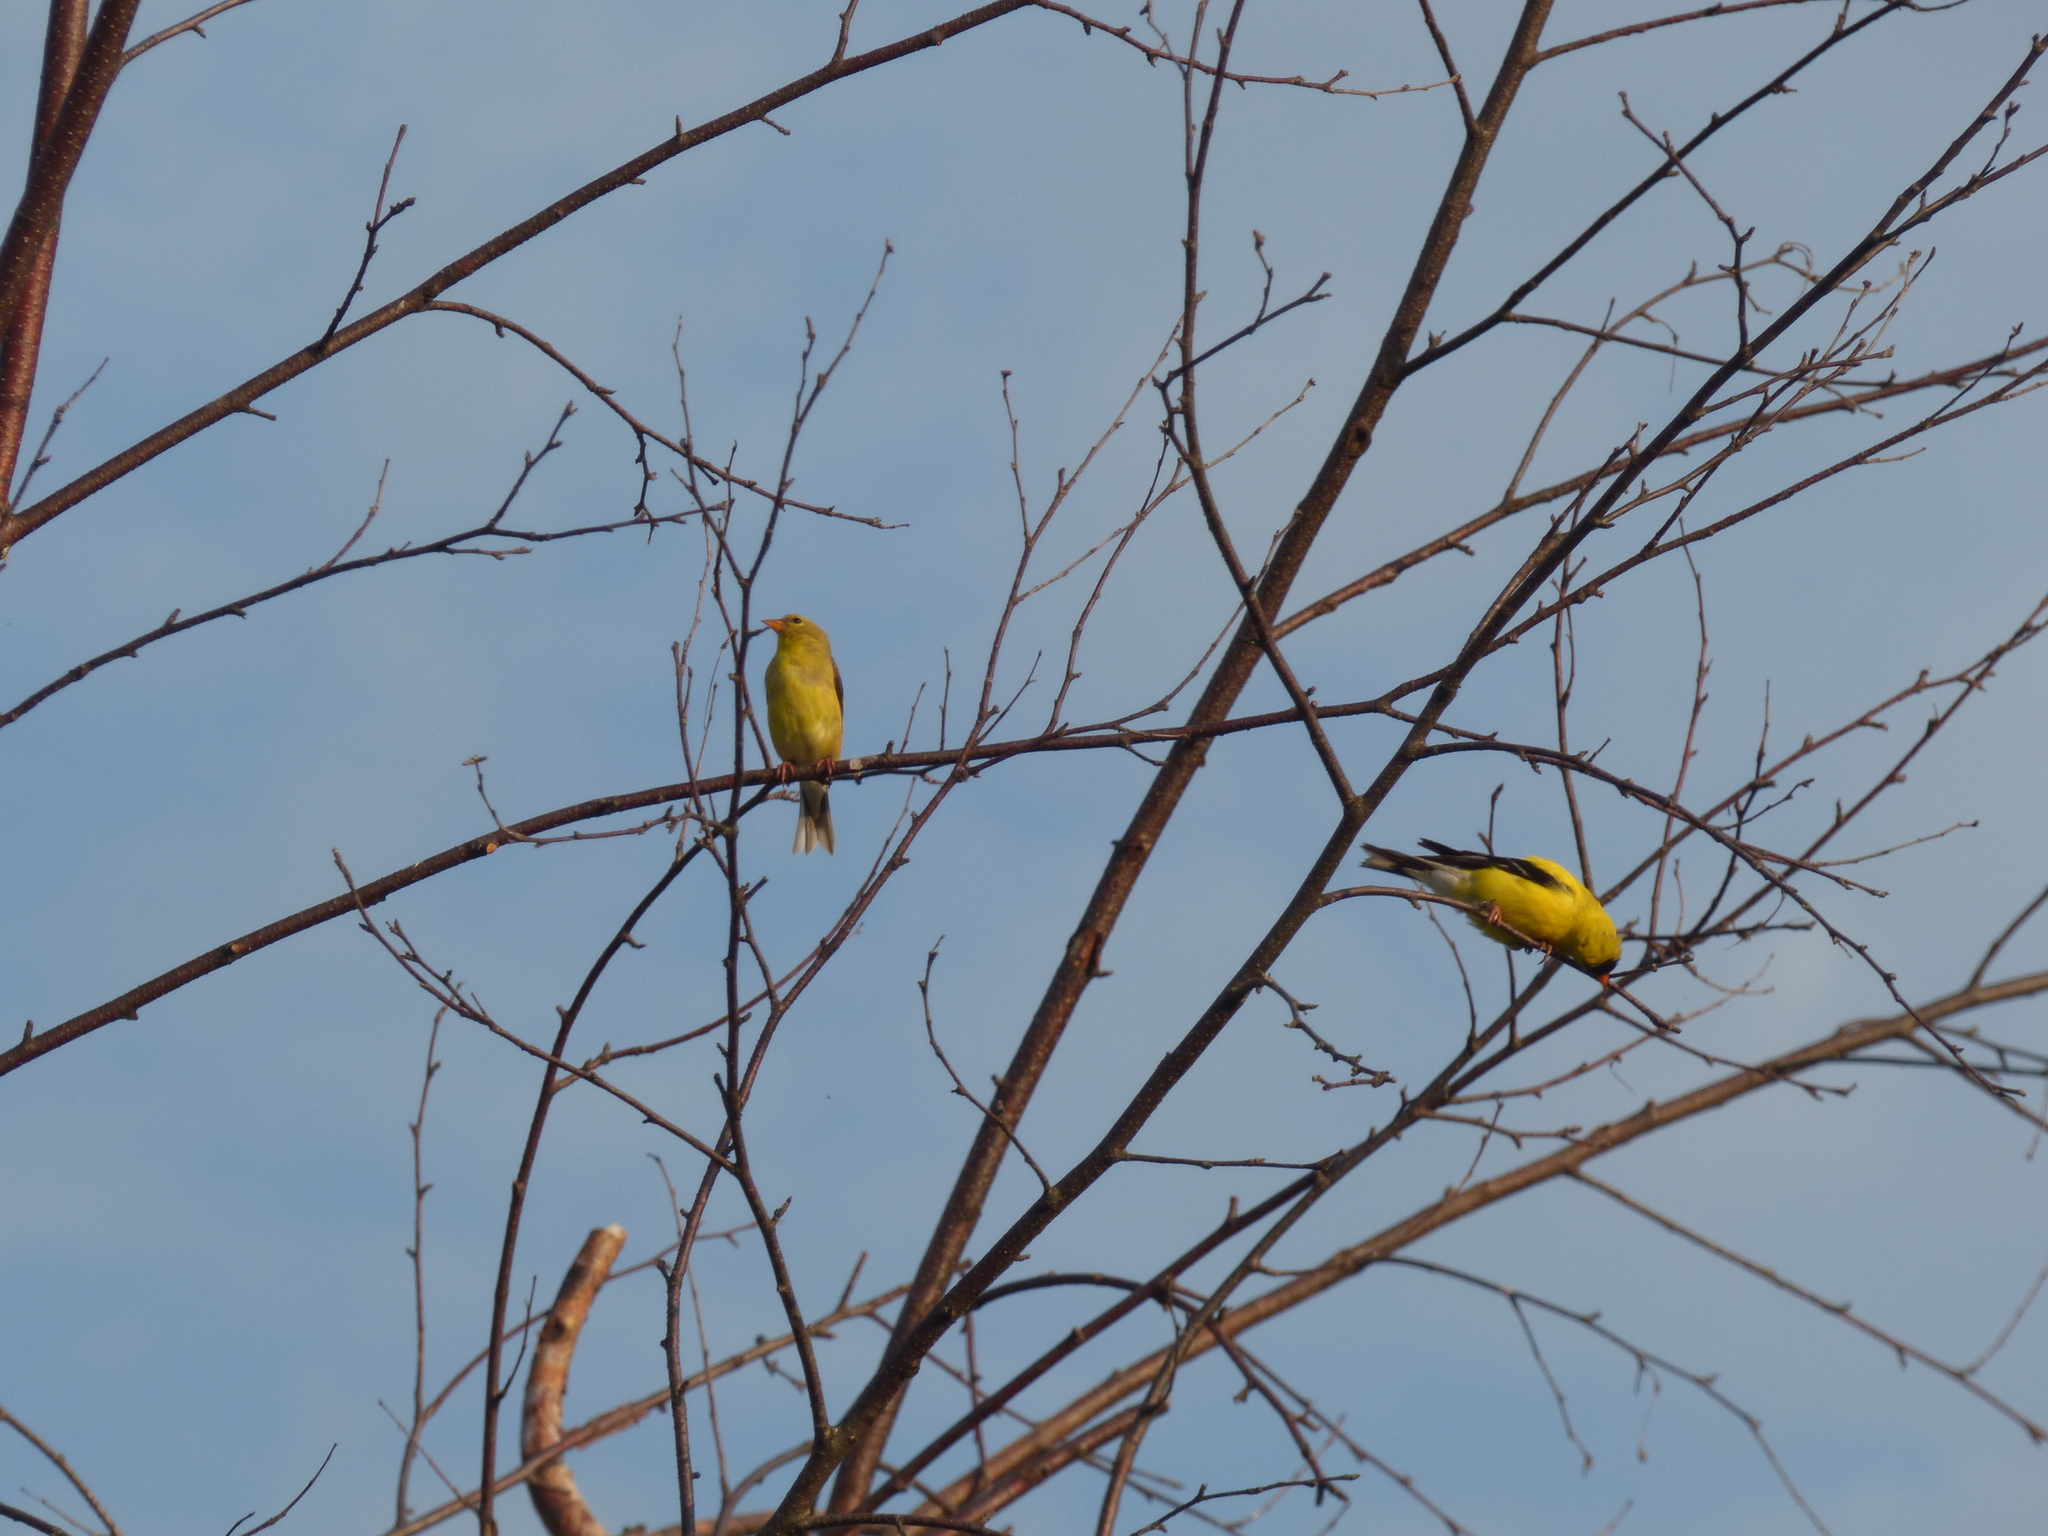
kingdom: Animalia
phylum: Chordata
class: Aves
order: Passeriformes
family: Fringillidae
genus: Spinus
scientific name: Spinus tristis
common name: American goldfinch
